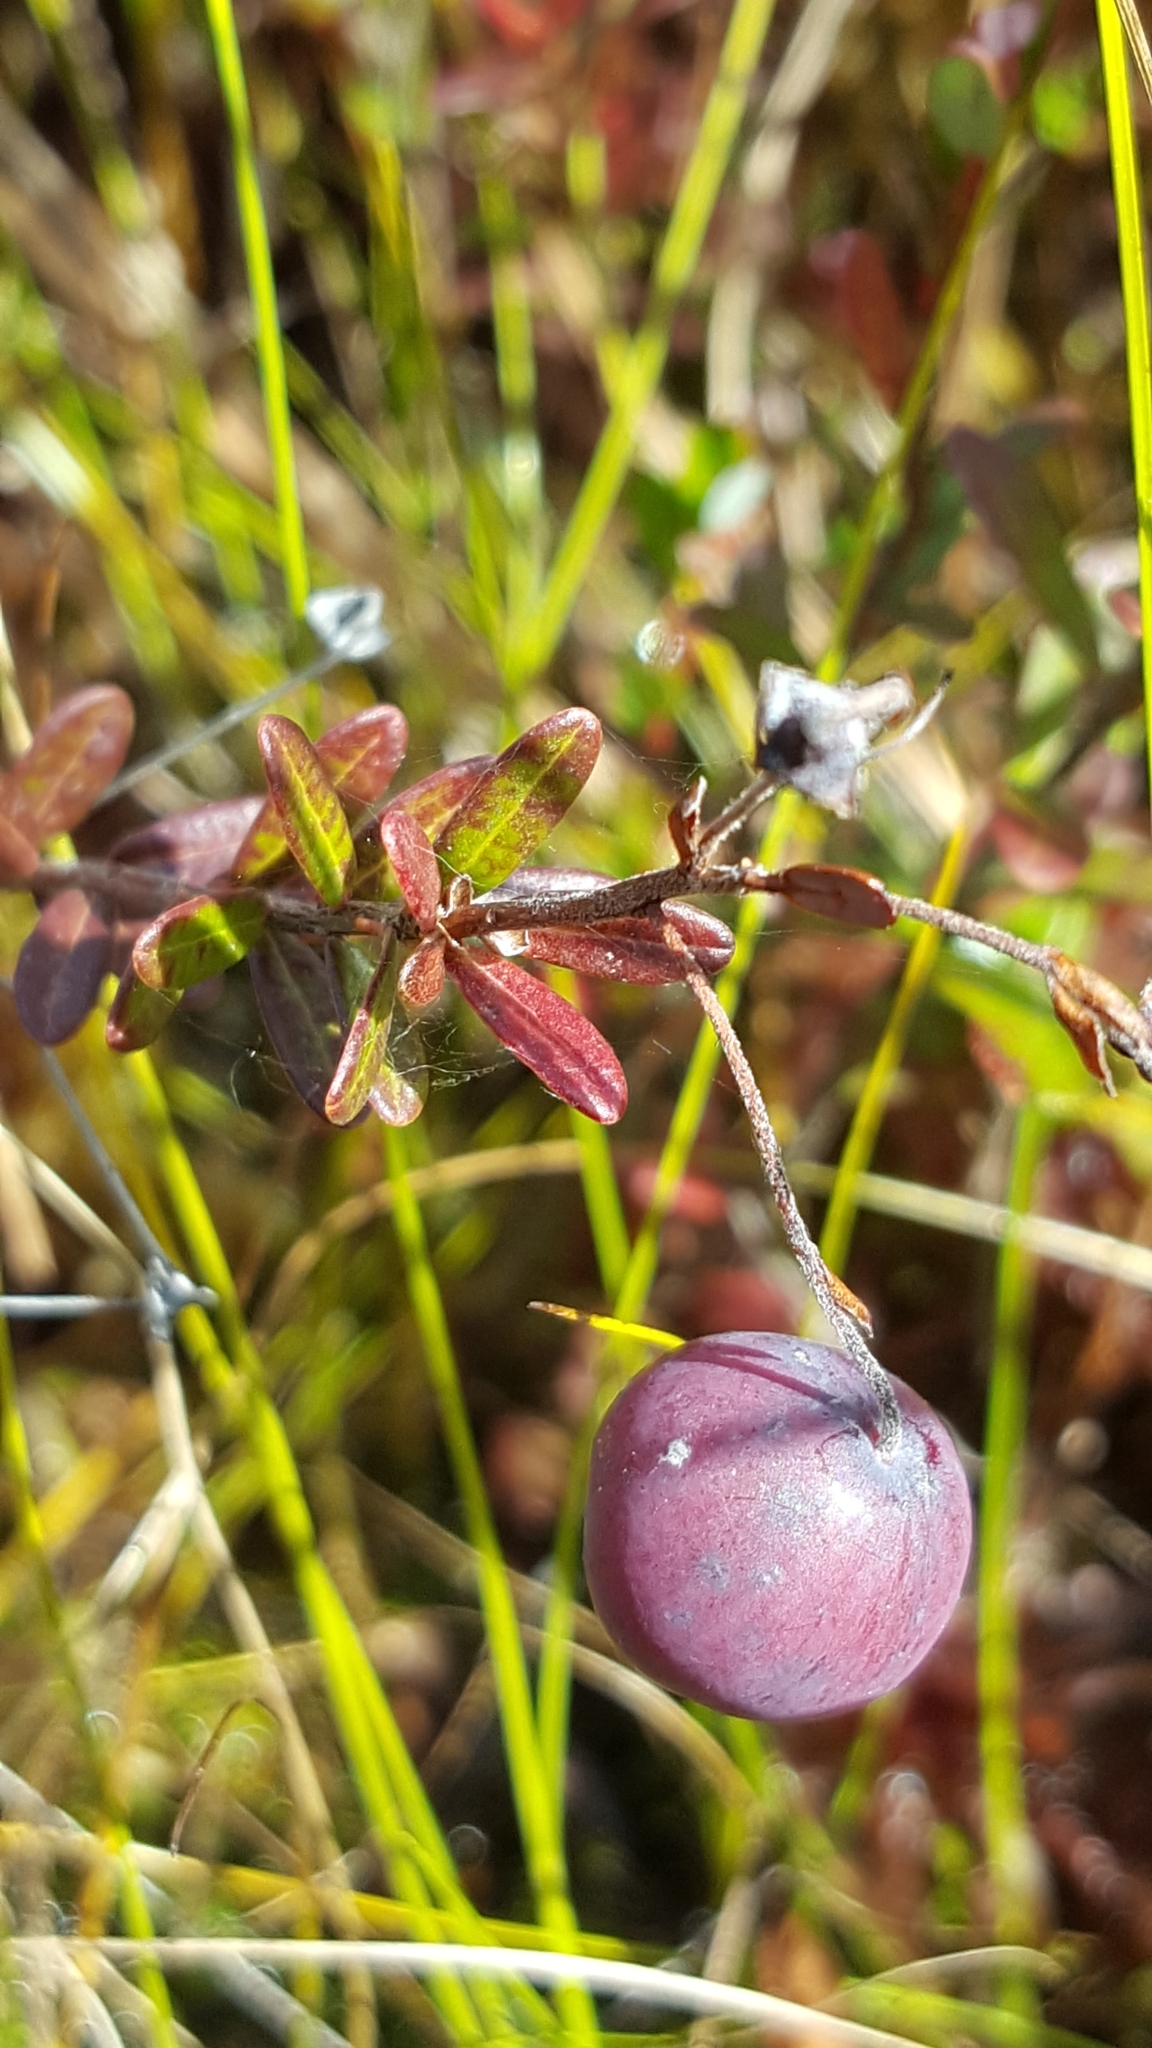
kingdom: Plantae
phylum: Tracheophyta
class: Magnoliopsida
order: Ericales
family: Ericaceae
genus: Vaccinium
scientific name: Vaccinium macrocarpon
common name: American cranberry
